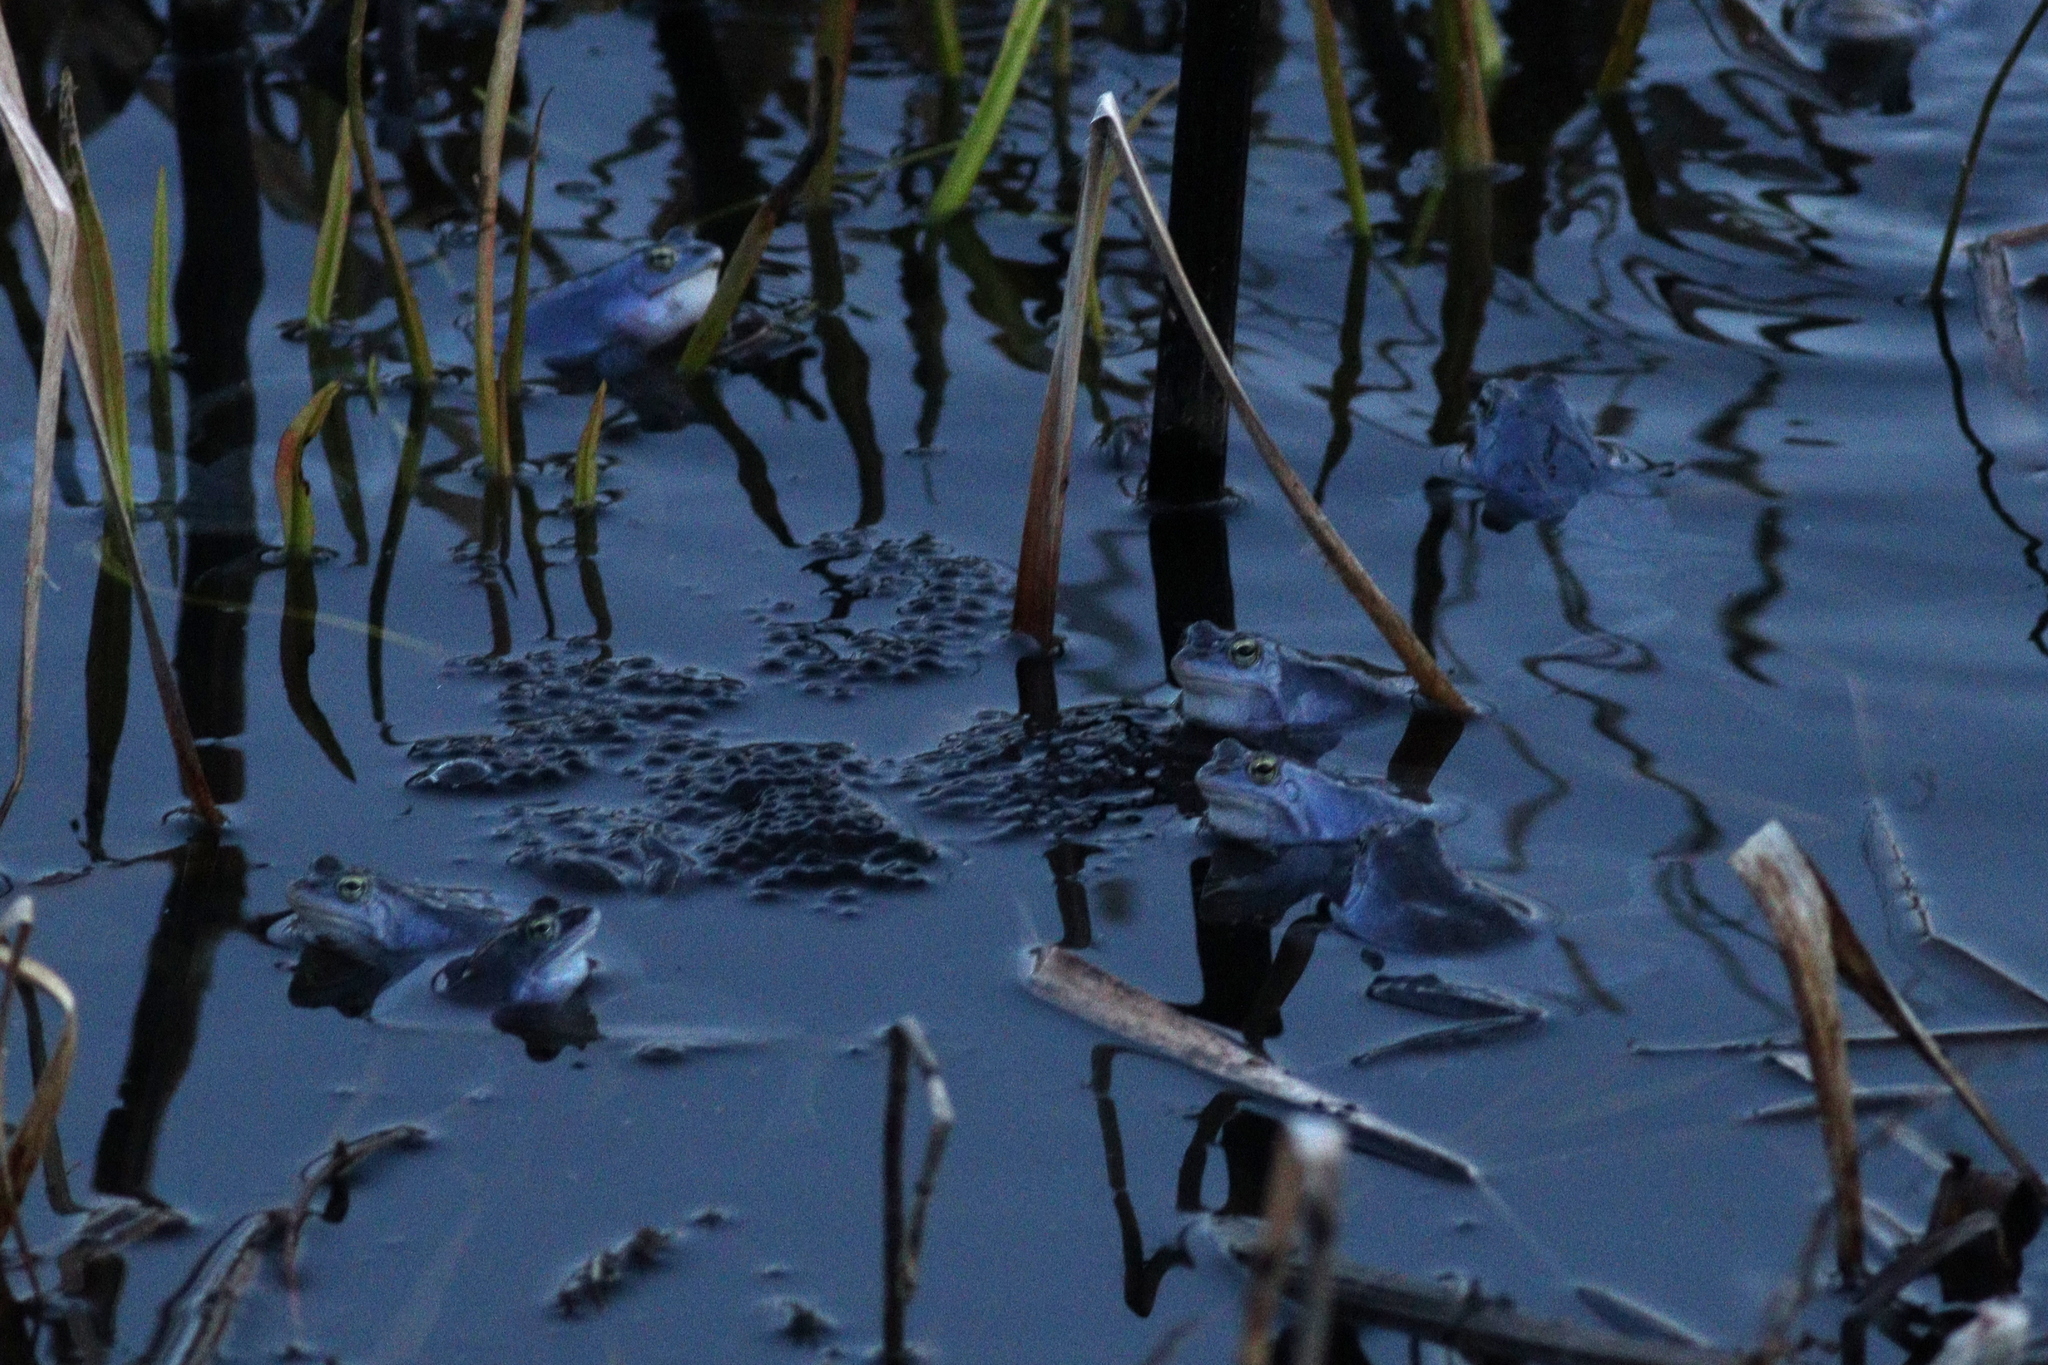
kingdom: Animalia
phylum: Chordata
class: Amphibia
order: Anura
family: Ranidae
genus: Rana
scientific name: Rana arvalis
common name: Moor frog
